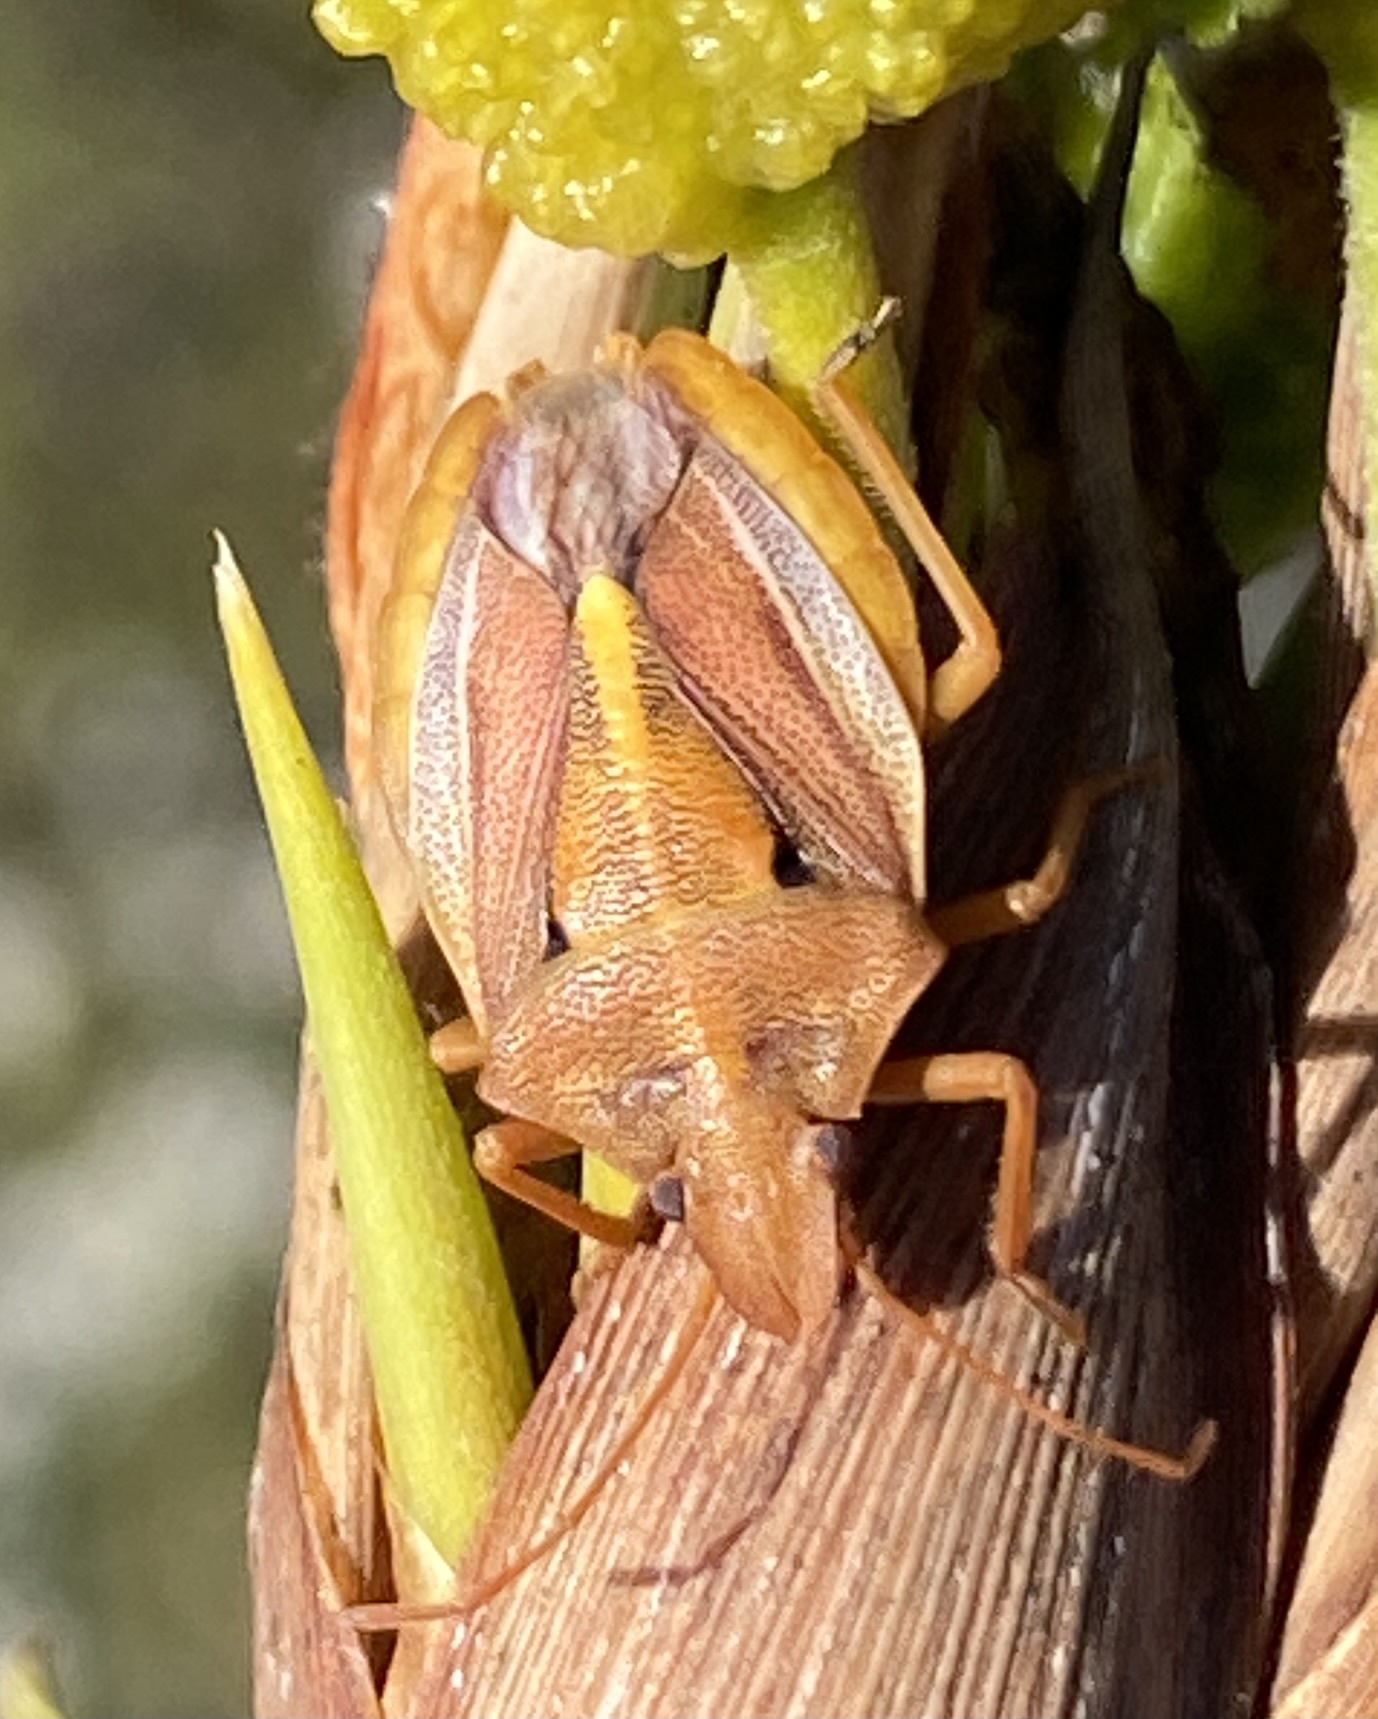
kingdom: Animalia
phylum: Arthropoda
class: Insecta
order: Hemiptera
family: Pentatomidae
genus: Tropicorypha
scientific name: Tropicorypha
